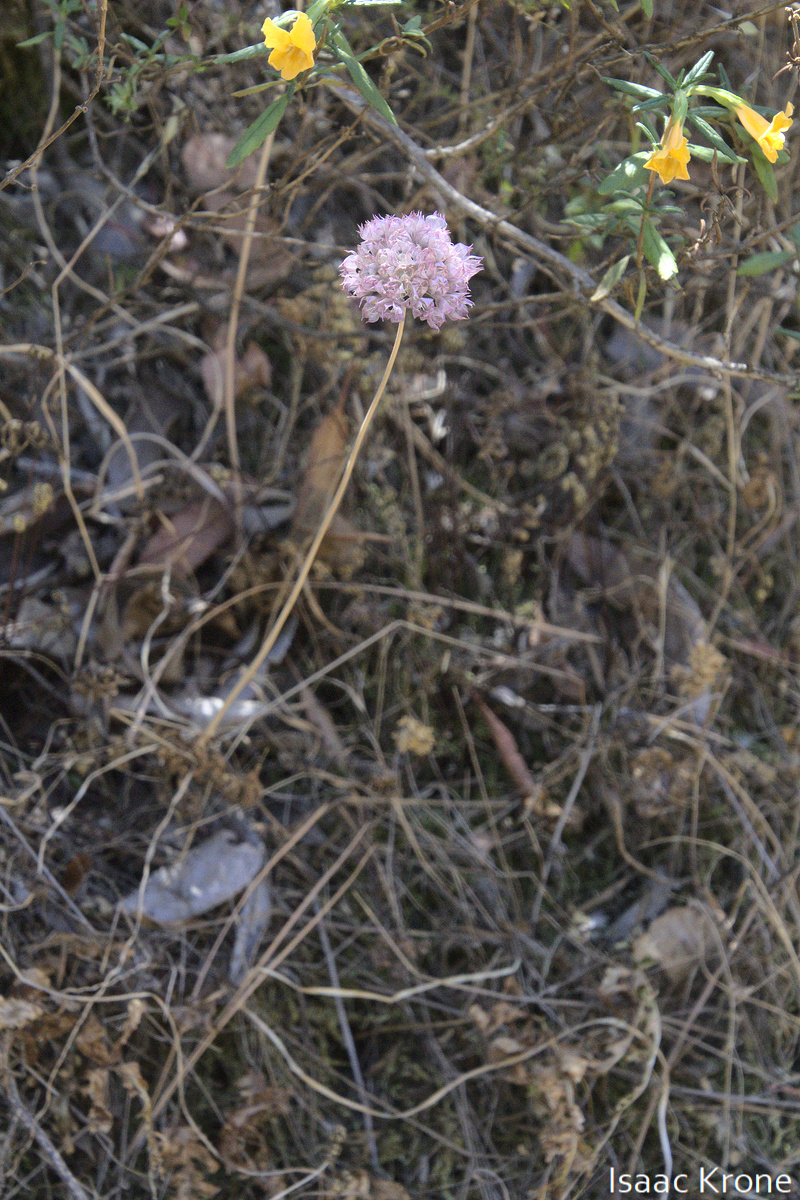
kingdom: Plantae
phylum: Tracheophyta
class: Liliopsida
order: Asparagales
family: Amaryllidaceae
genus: Allium
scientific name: Allium serra
